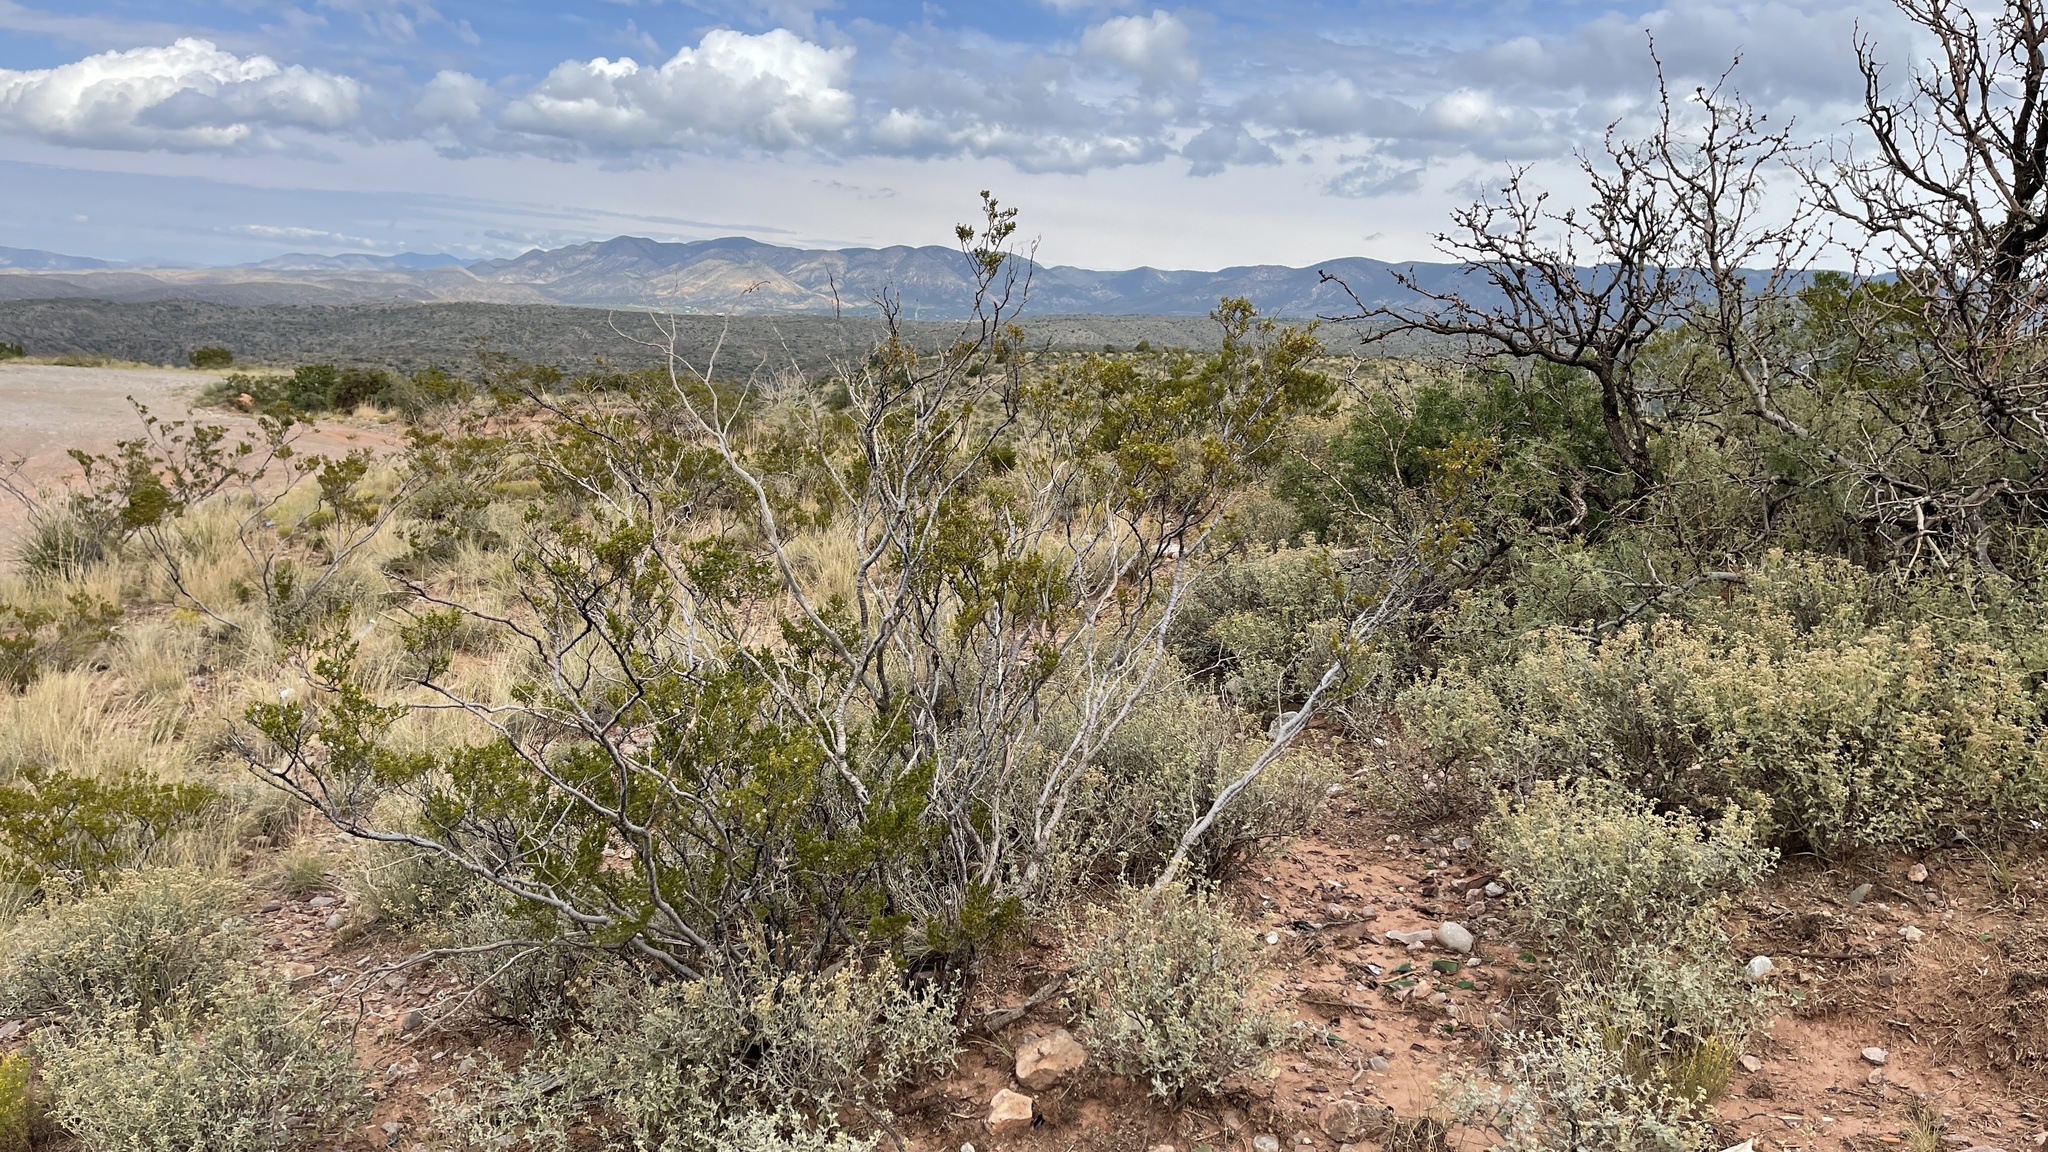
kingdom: Plantae
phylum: Tracheophyta
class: Magnoliopsida
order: Zygophyllales
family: Zygophyllaceae
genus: Larrea
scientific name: Larrea tridentata
